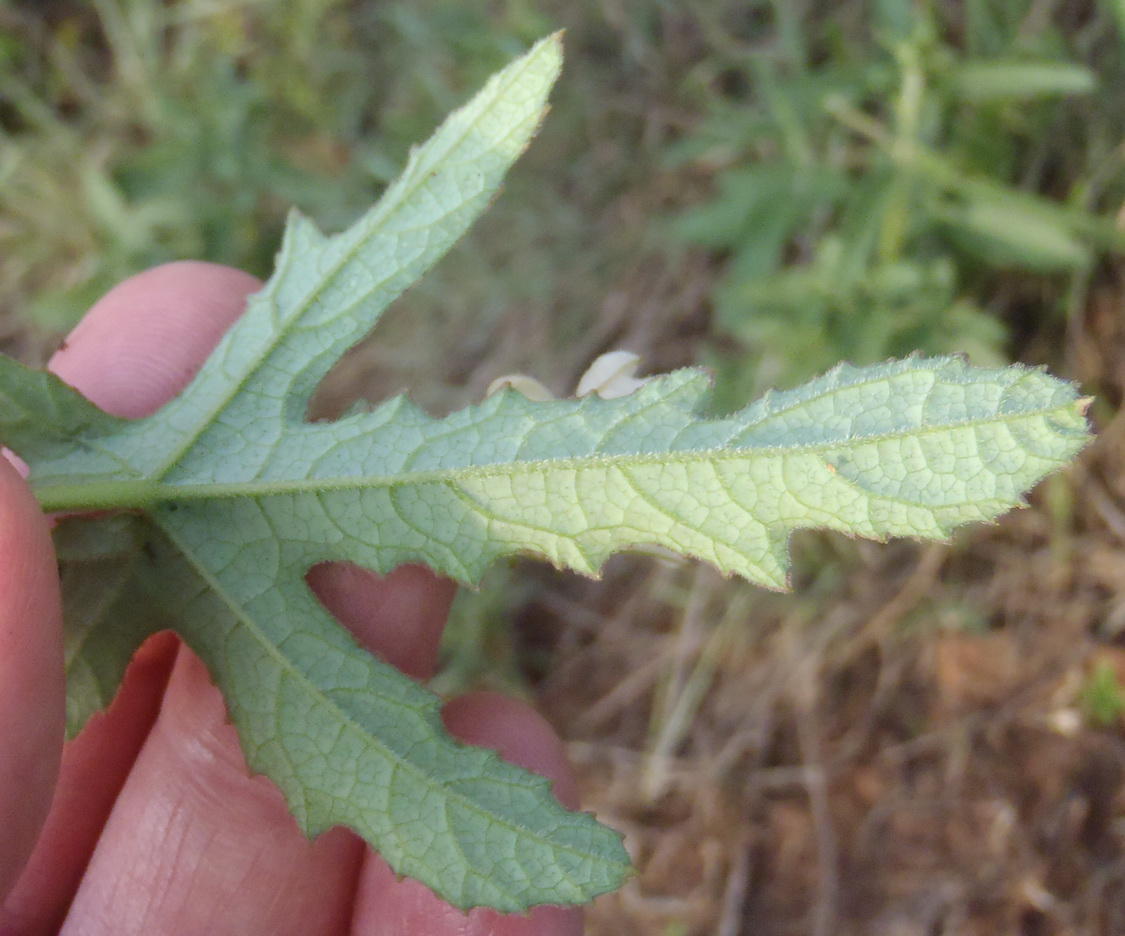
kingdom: Plantae
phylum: Tracheophyta
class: Magnoliopsida
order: Cucurbitales
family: Cucurbitaceae
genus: Coccinia
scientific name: Coccinia adoensis
